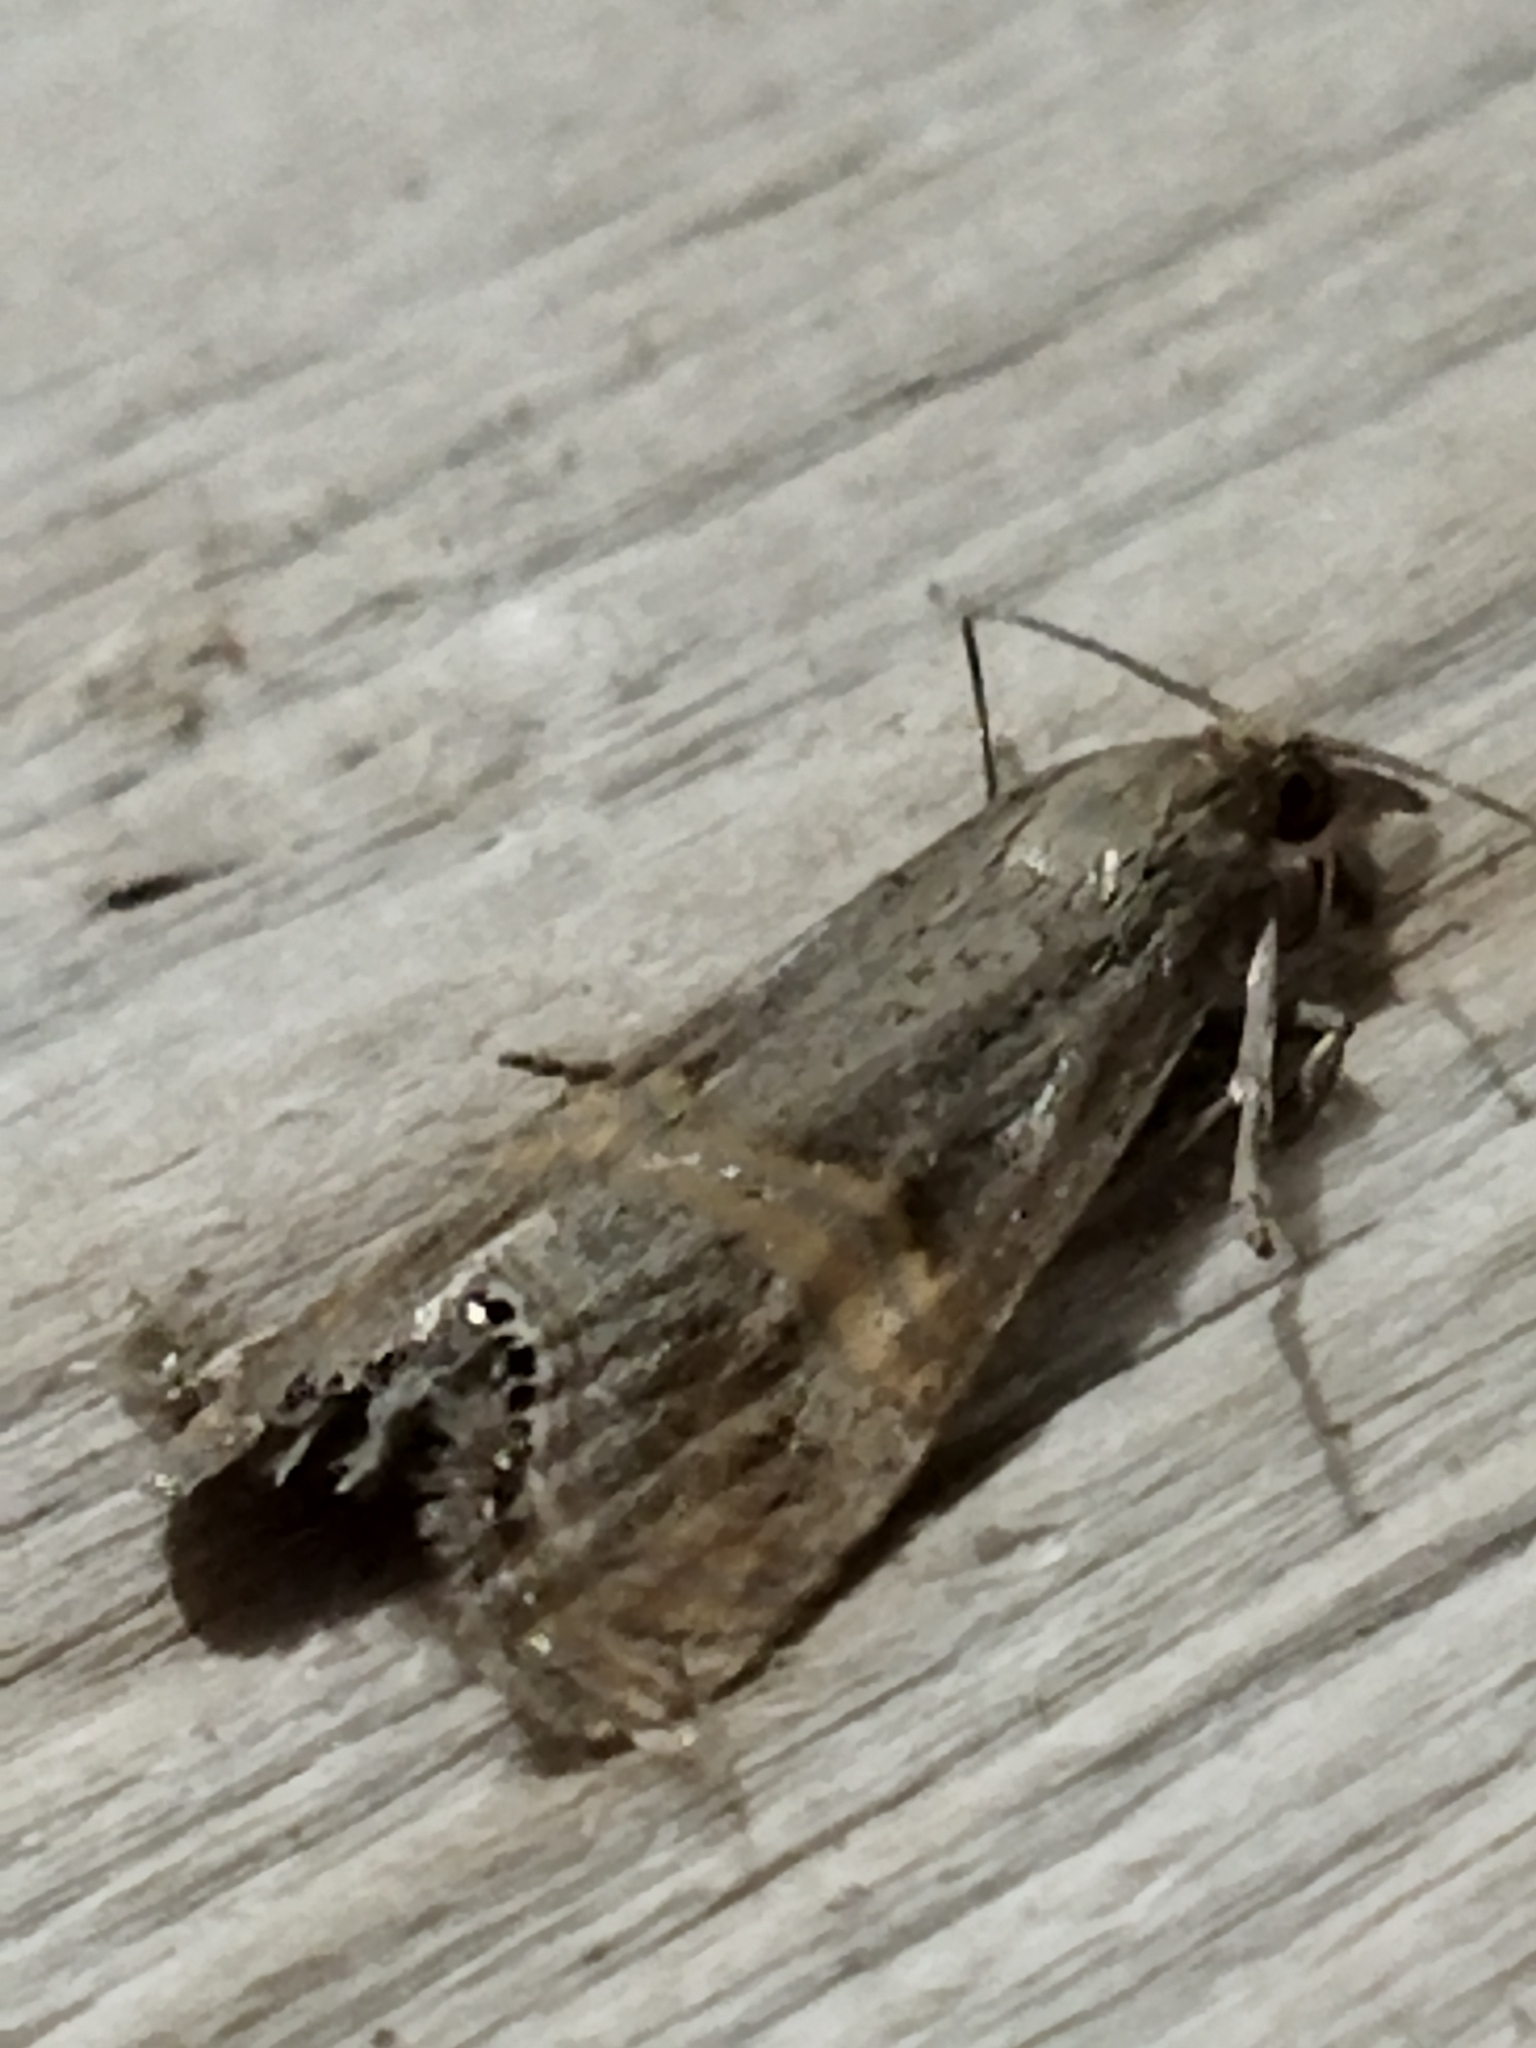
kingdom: Animalia
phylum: Arthropoda
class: Insecta
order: Lepidoptera
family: Crambidae
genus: Euchromius
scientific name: Euchromius ocellea
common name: Necklace veneer moth
